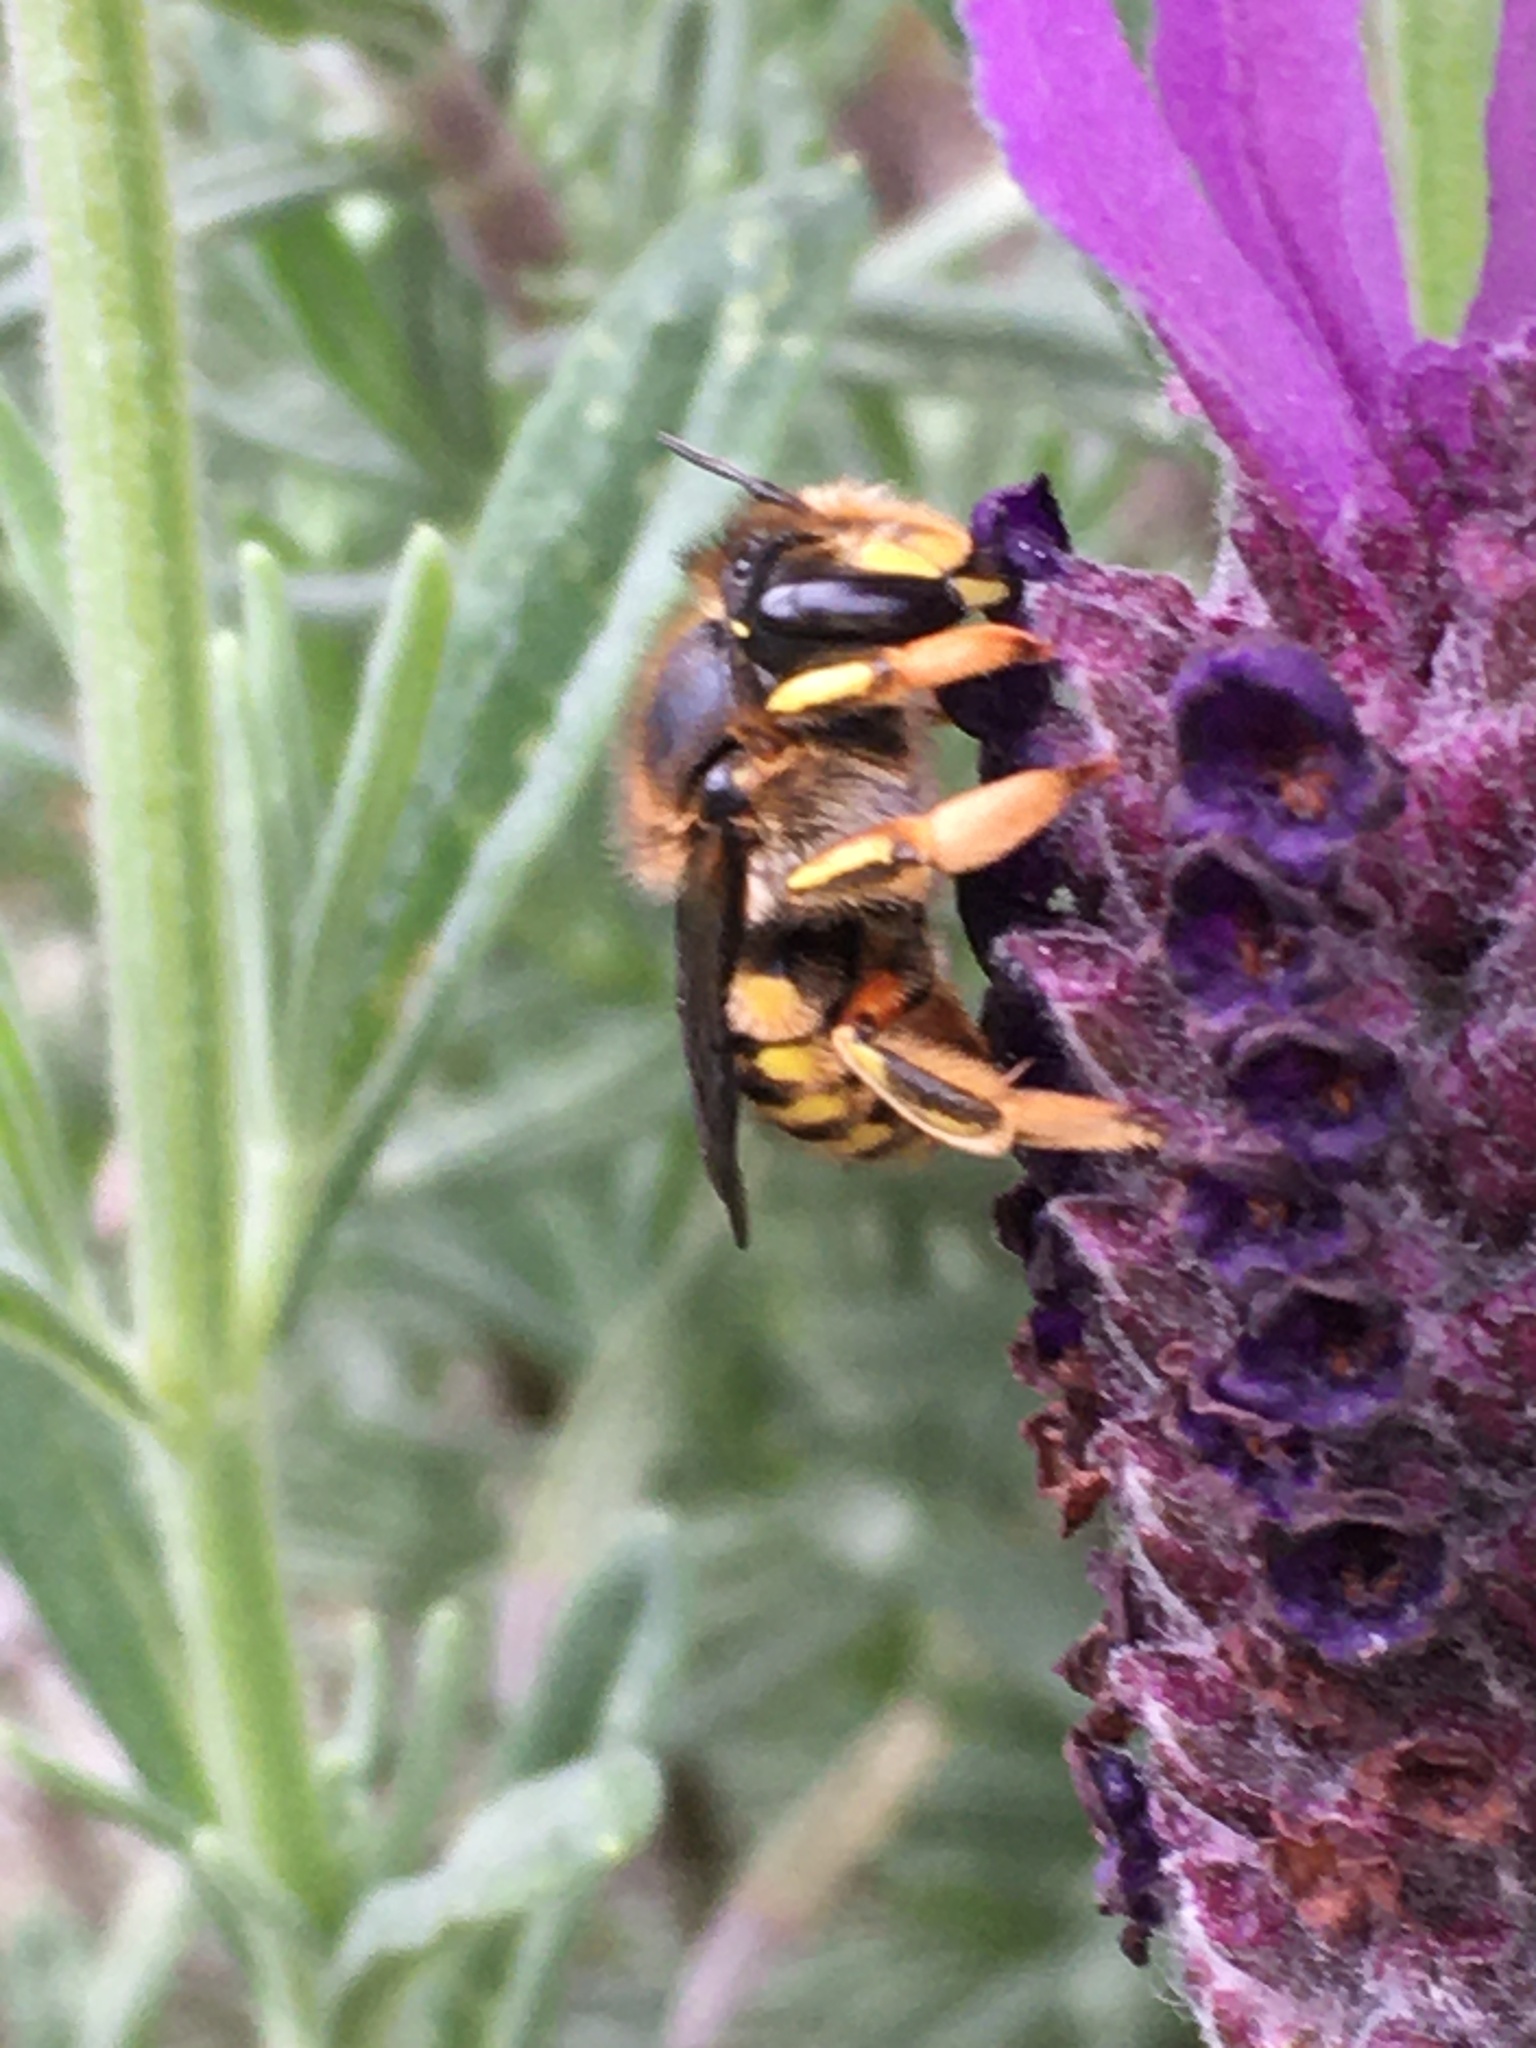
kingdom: Animalia
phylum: Arthropoda
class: Insecta
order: Hymenoptera
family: Megachilidae
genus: Anthidium
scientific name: Anthidium manicatum
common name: Wool carder bee
